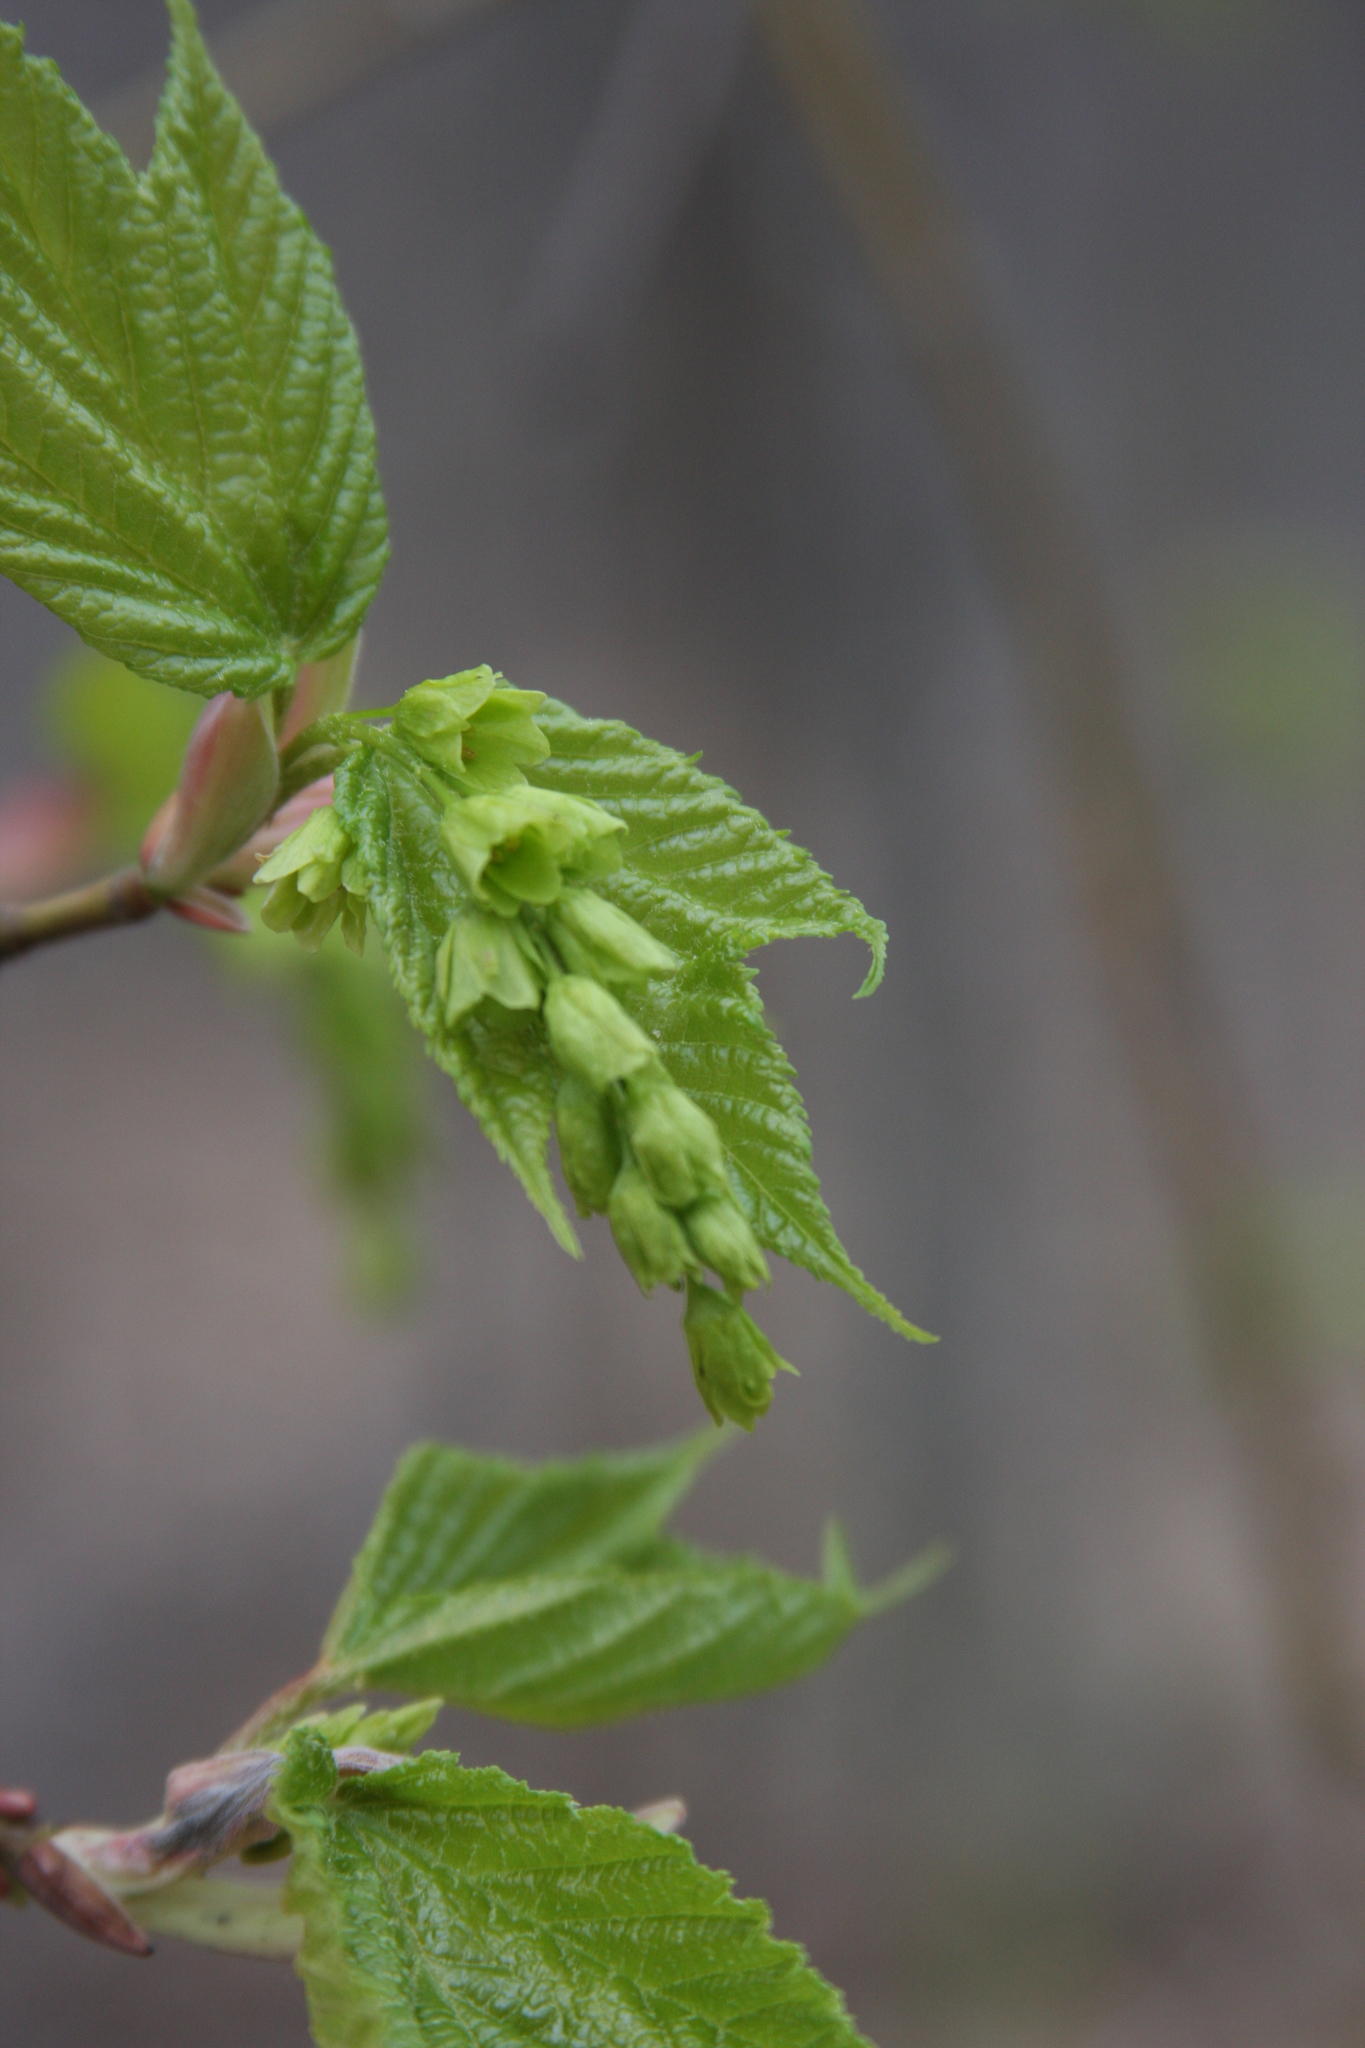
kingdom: Plantae
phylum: Tracheophyta
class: Magnoliopsida
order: Sapindales
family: Sapindaceae
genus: Acer
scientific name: Acer pensylvanicum
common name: Moosewood
